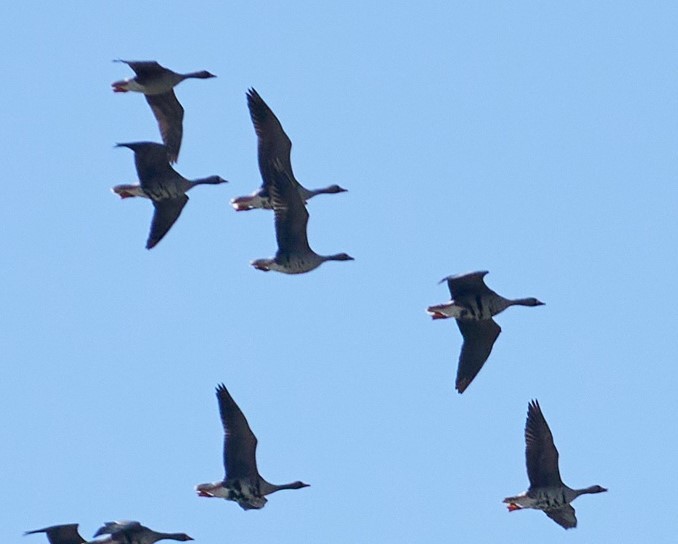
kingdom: Animalia
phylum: Chordata
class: Aves
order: Anseriformes
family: Anatidae
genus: Anser
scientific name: Anser albifrons
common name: Greater white-fronted goose
